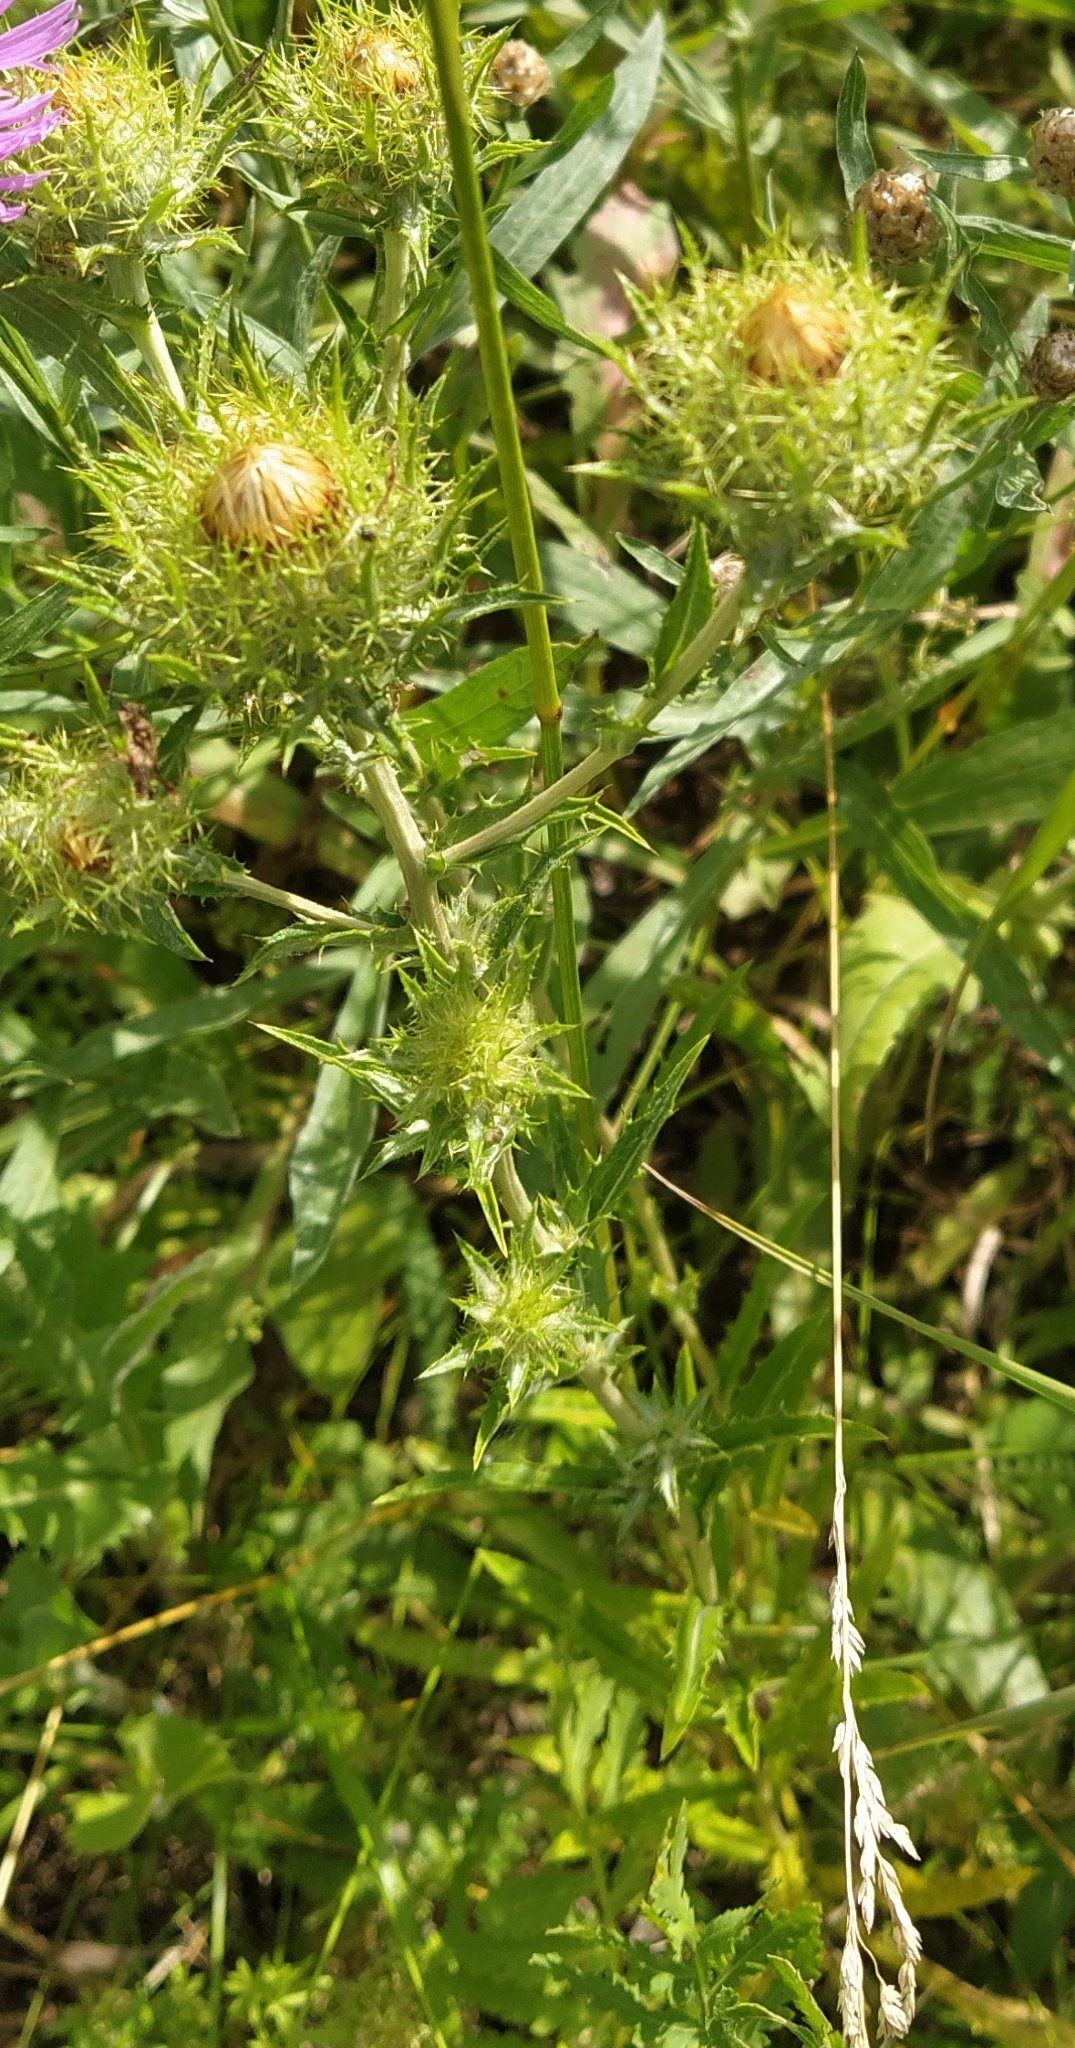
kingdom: Plantae
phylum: Tracheophyta
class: Magnoliopsida
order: Asterales
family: Asteraceae
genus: Carlina
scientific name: Carlina biebersteinii
